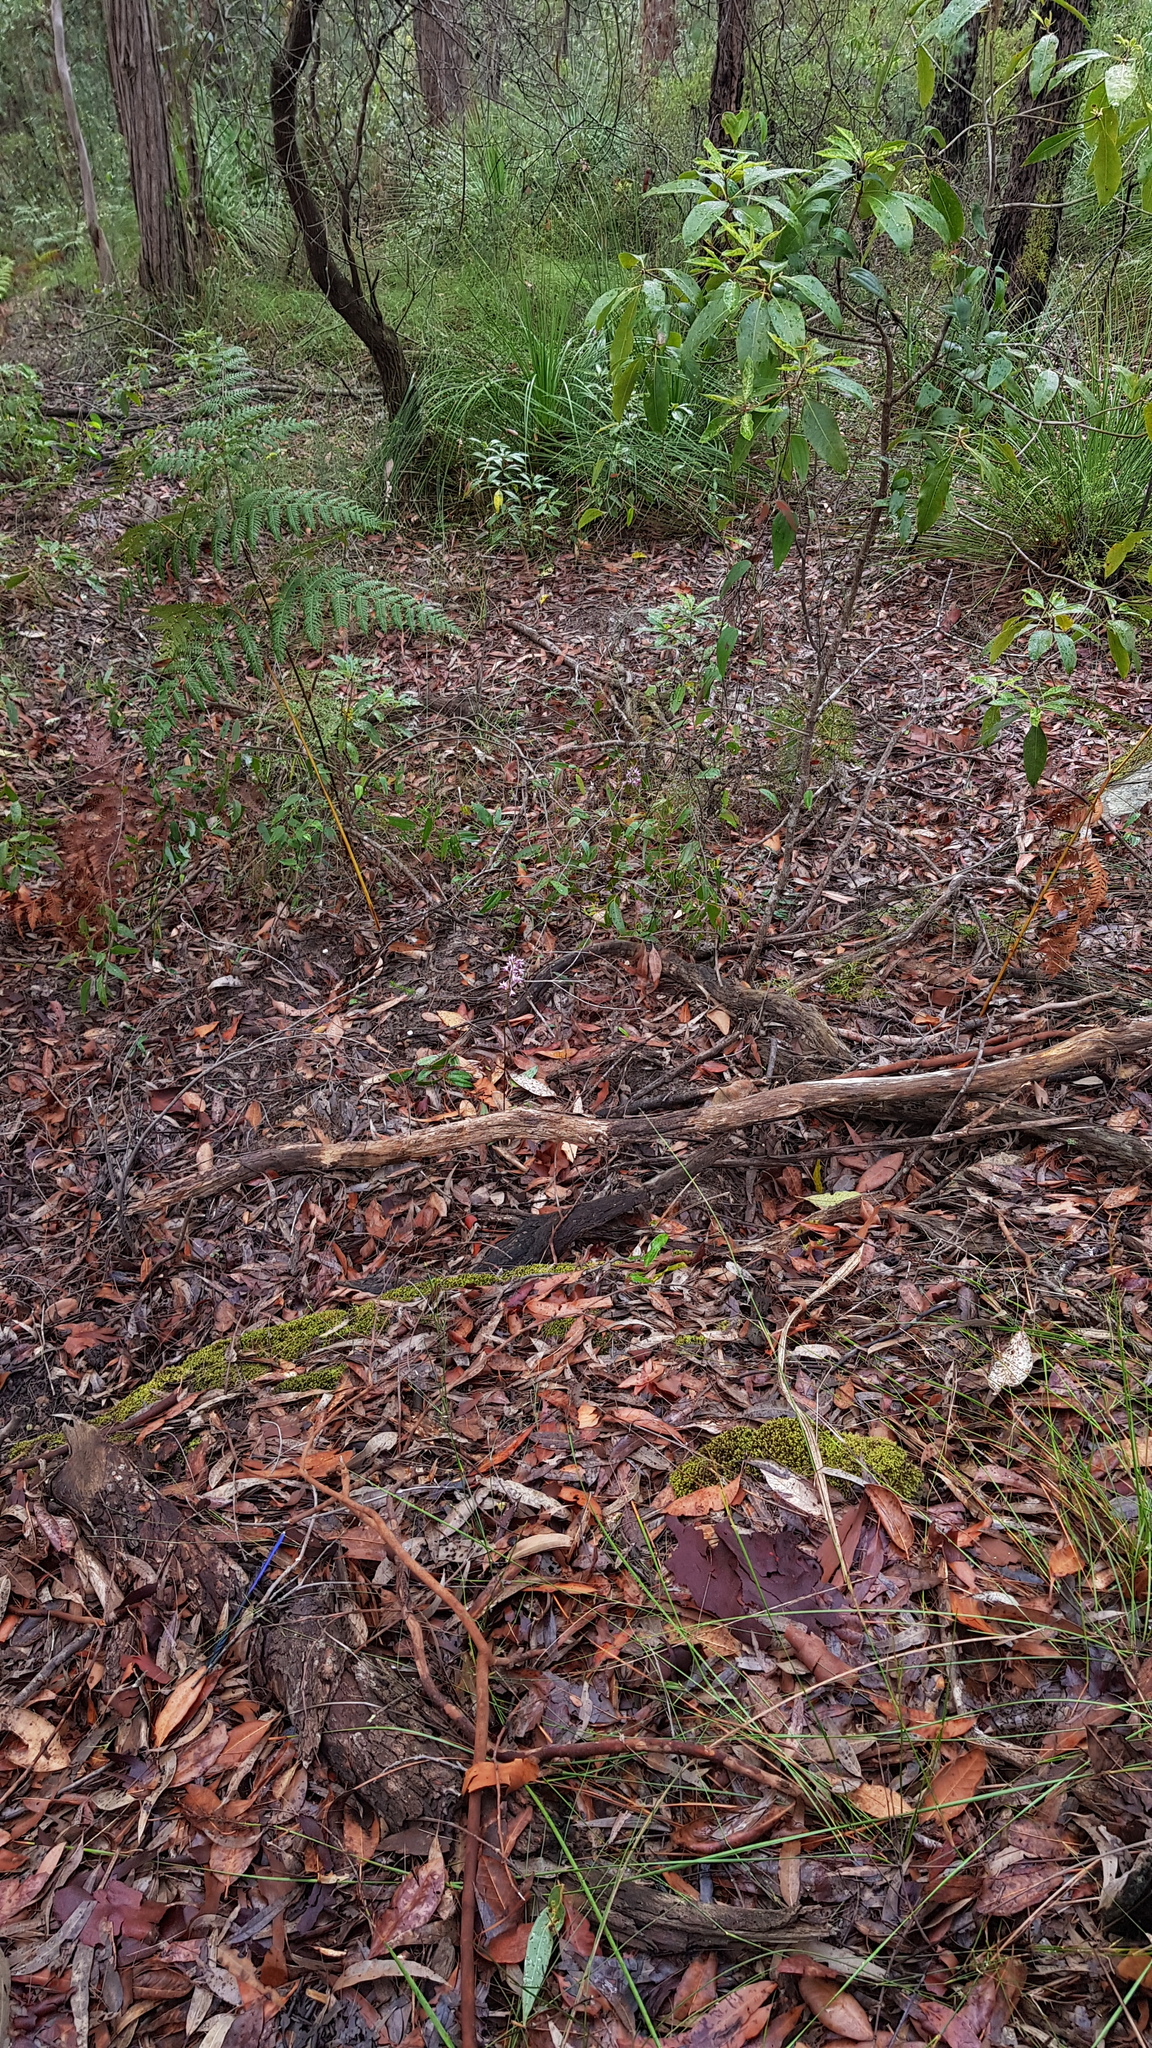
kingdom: Plantae
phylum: Tracheophyta
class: Liliopsida
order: Asparagales
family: Orchidaceae
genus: Dipodium
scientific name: Dipodium variegatum
